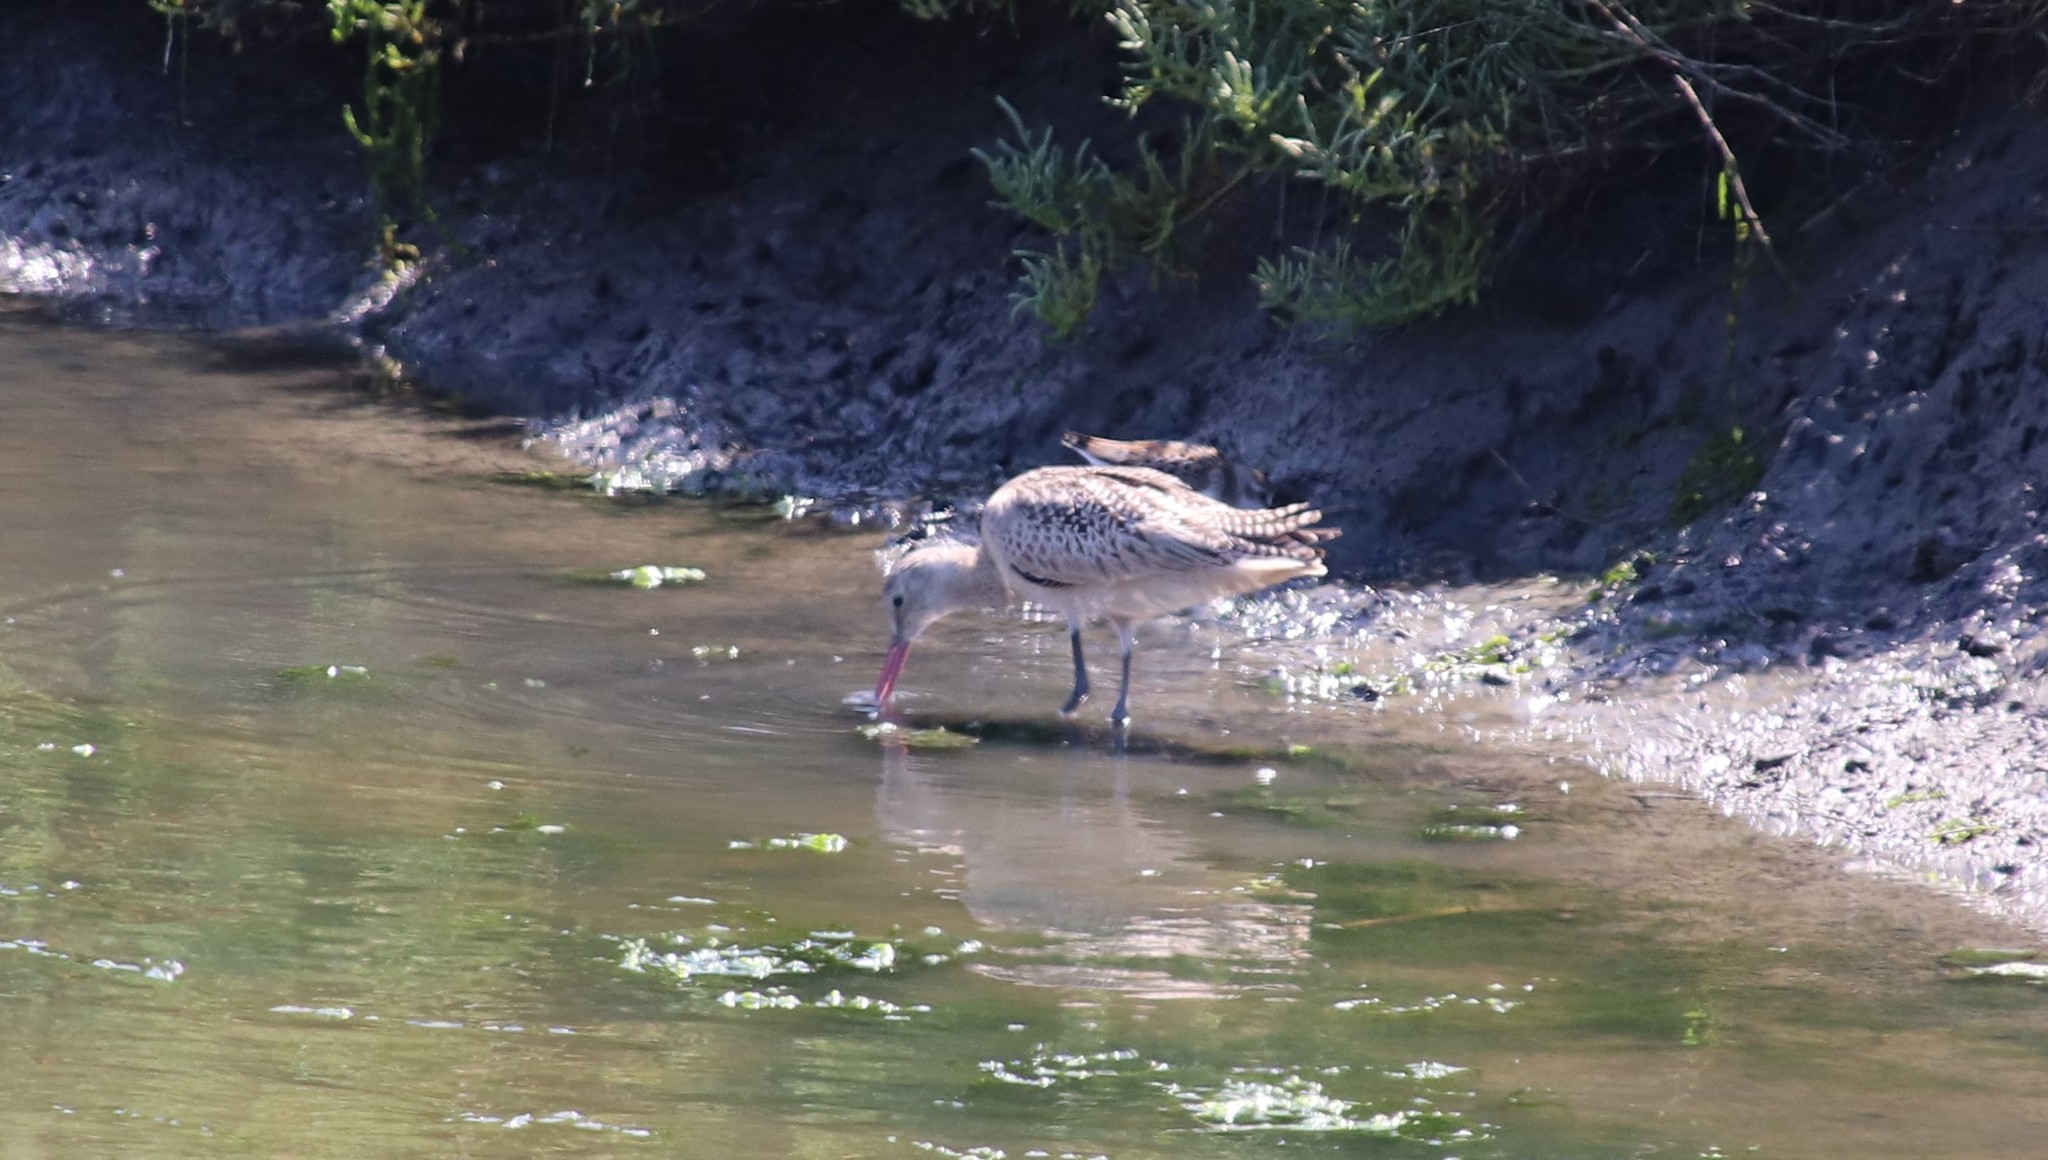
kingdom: Animalia
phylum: Chordata
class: Aves
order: Charadriiformes
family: Scolopacidae
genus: Limosa
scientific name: Limosa fedoa
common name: Marbled godwit
